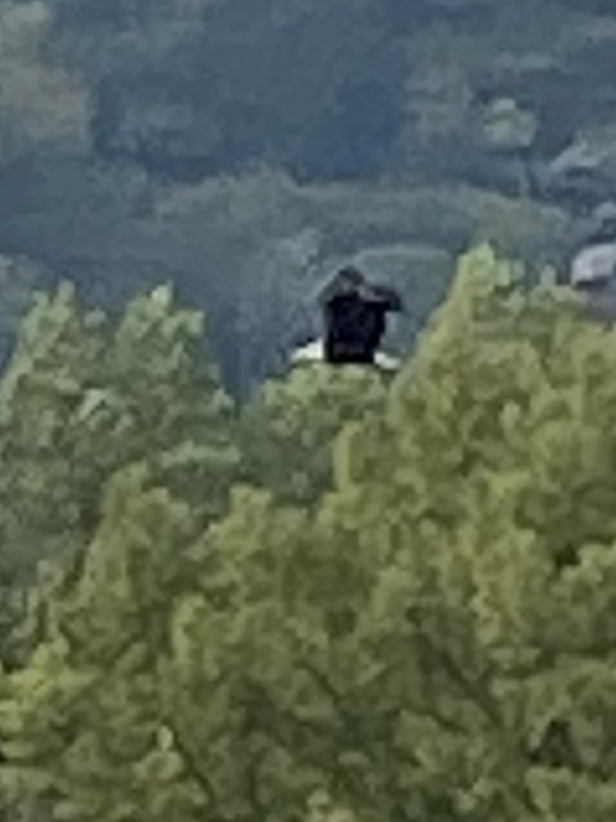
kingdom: Animalia
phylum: Chordata
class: Aves
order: Accipitriformes
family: Accipitridae
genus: Haliaeetus
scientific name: Haliaeetus leucocephalus
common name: Bald eagle
